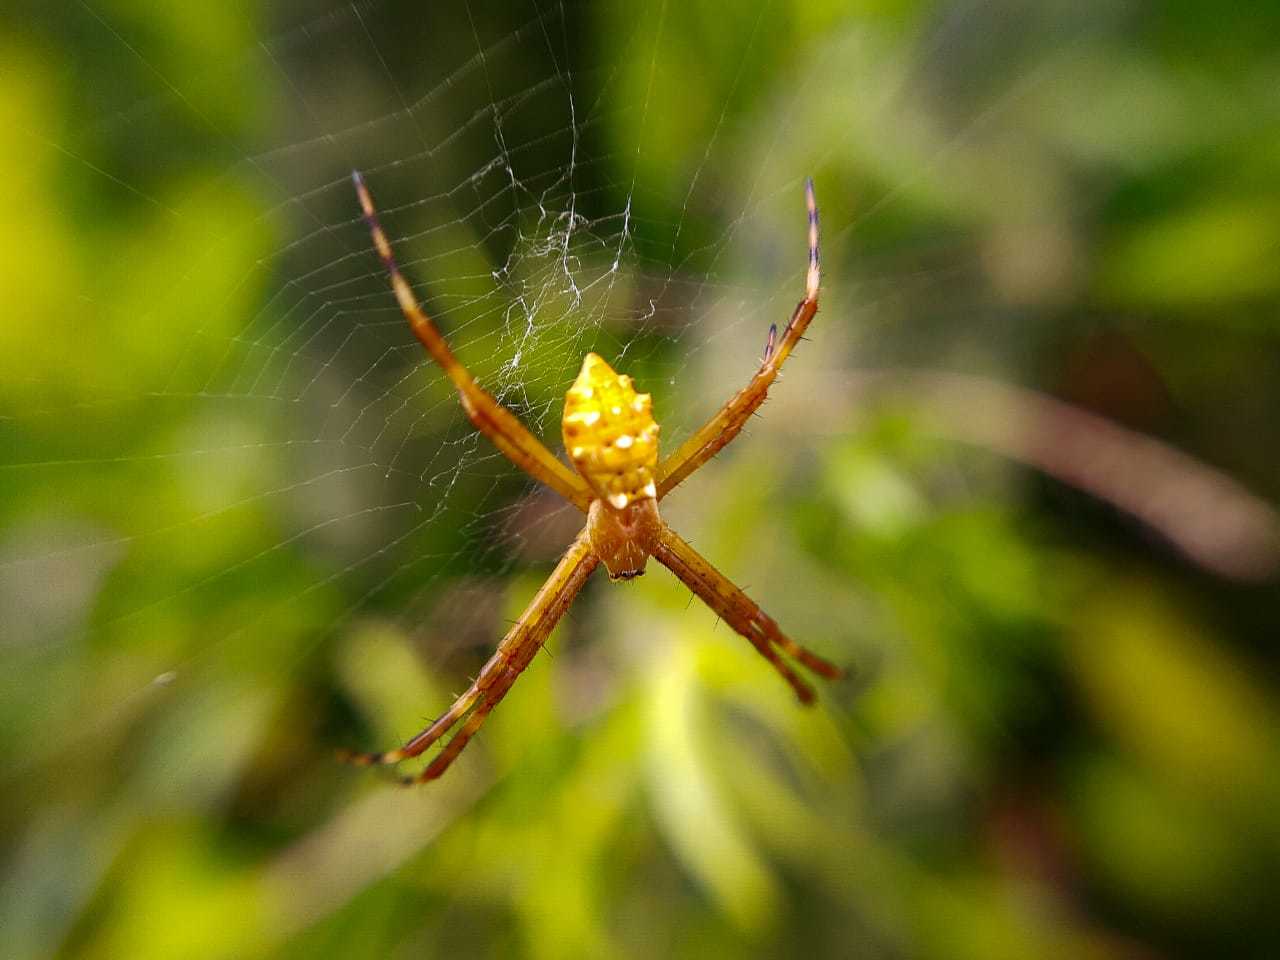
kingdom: Animalia
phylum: Arthropoda
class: Arachnida
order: Araneae
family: Araneidae
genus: Argiope
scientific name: Argiope argentata
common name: Orb weavers
